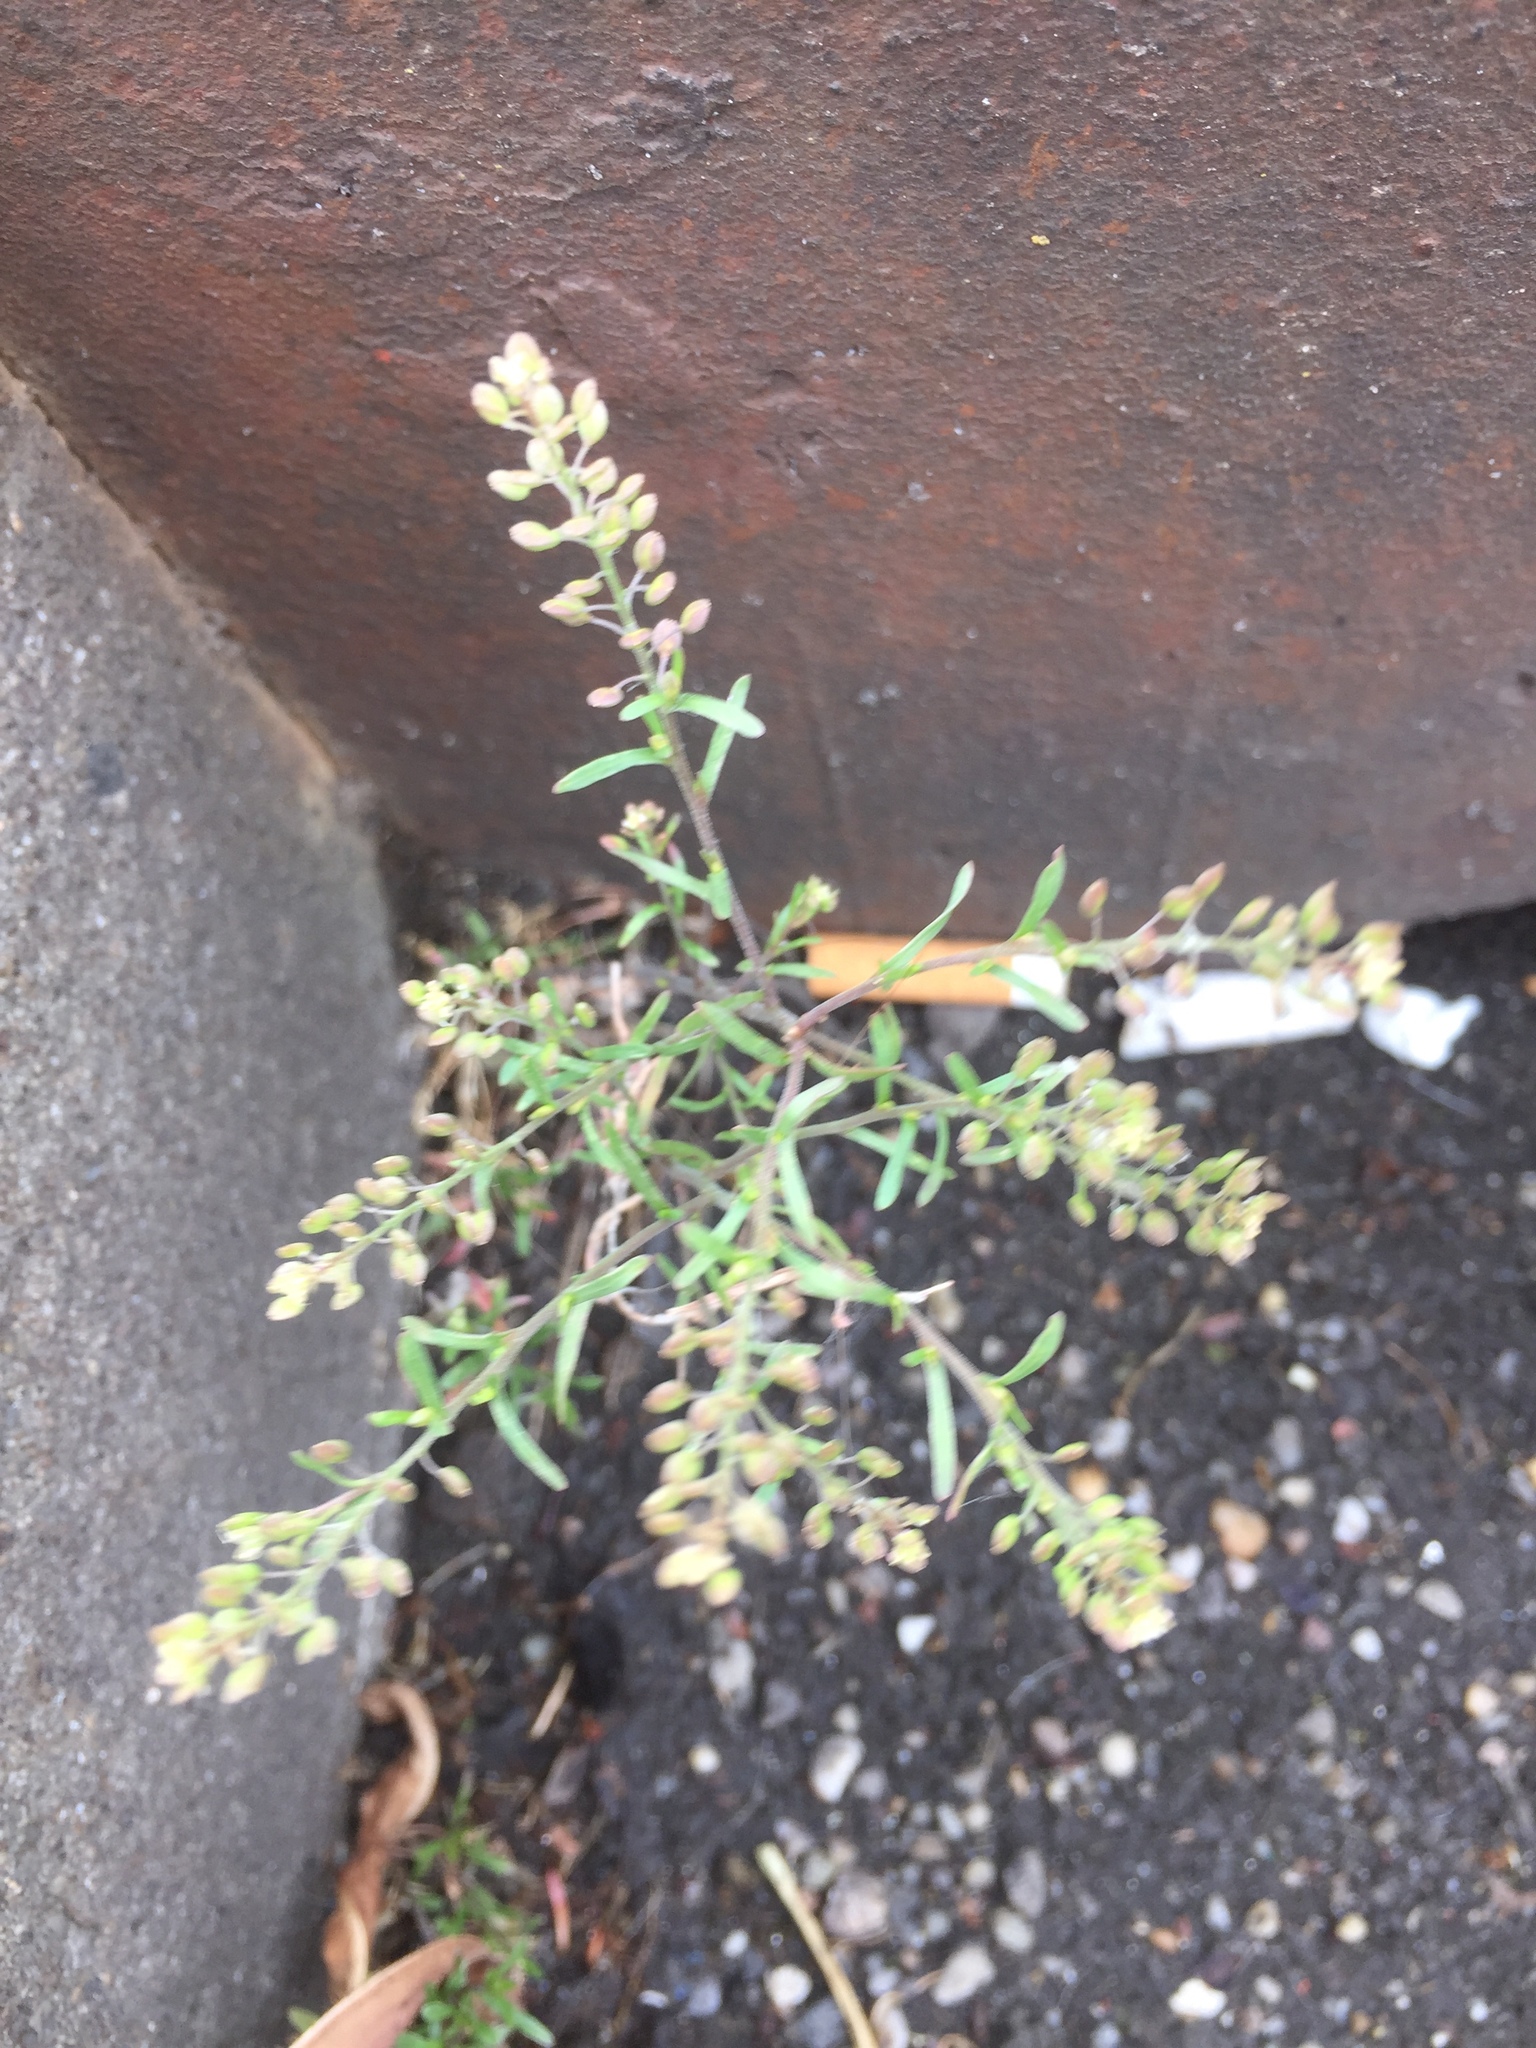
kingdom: Plantae
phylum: Tracheophyta
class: Magnoliopsida
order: Brassicales
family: Brassicaceae
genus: Lepidium
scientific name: Lepidium ruderale
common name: Narrow-leaved pepperwort
